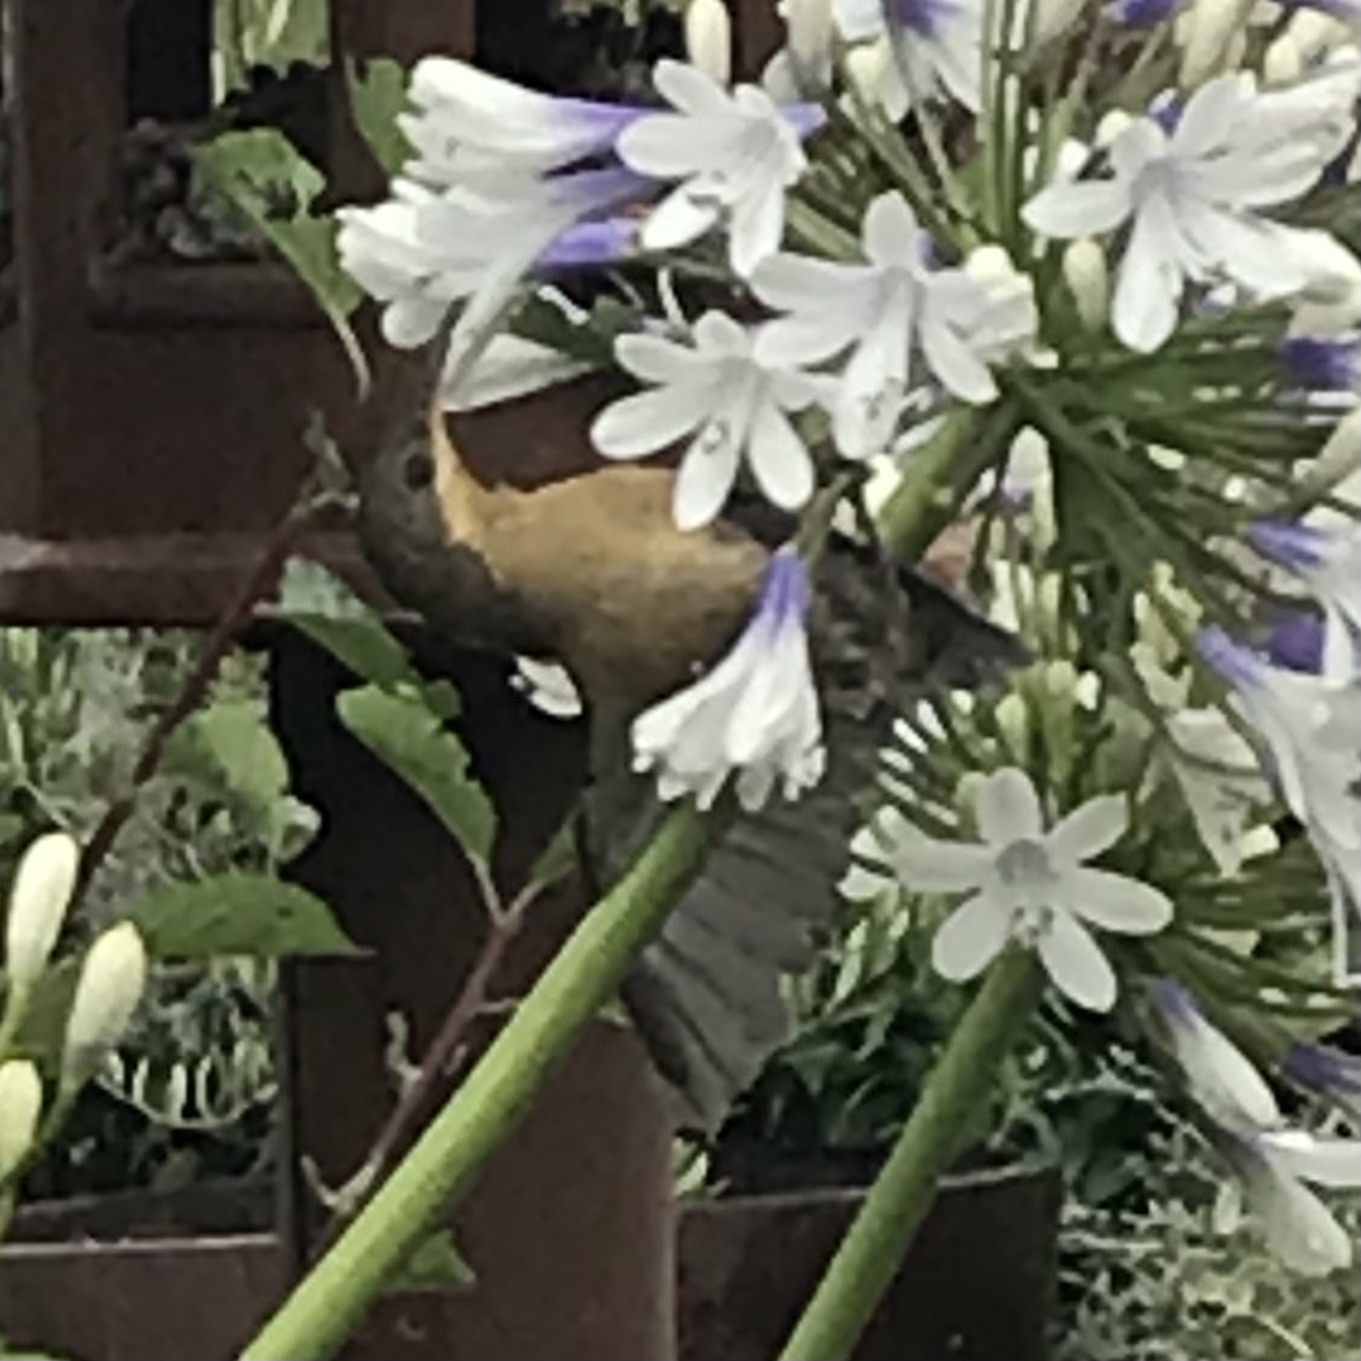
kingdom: Animalia
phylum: Chordata
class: Aves
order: Passeriformes
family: Meliphagidae
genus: Acanthorhynchus
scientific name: Acanthorhynchus tenuirostris
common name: Eastern spinebill
